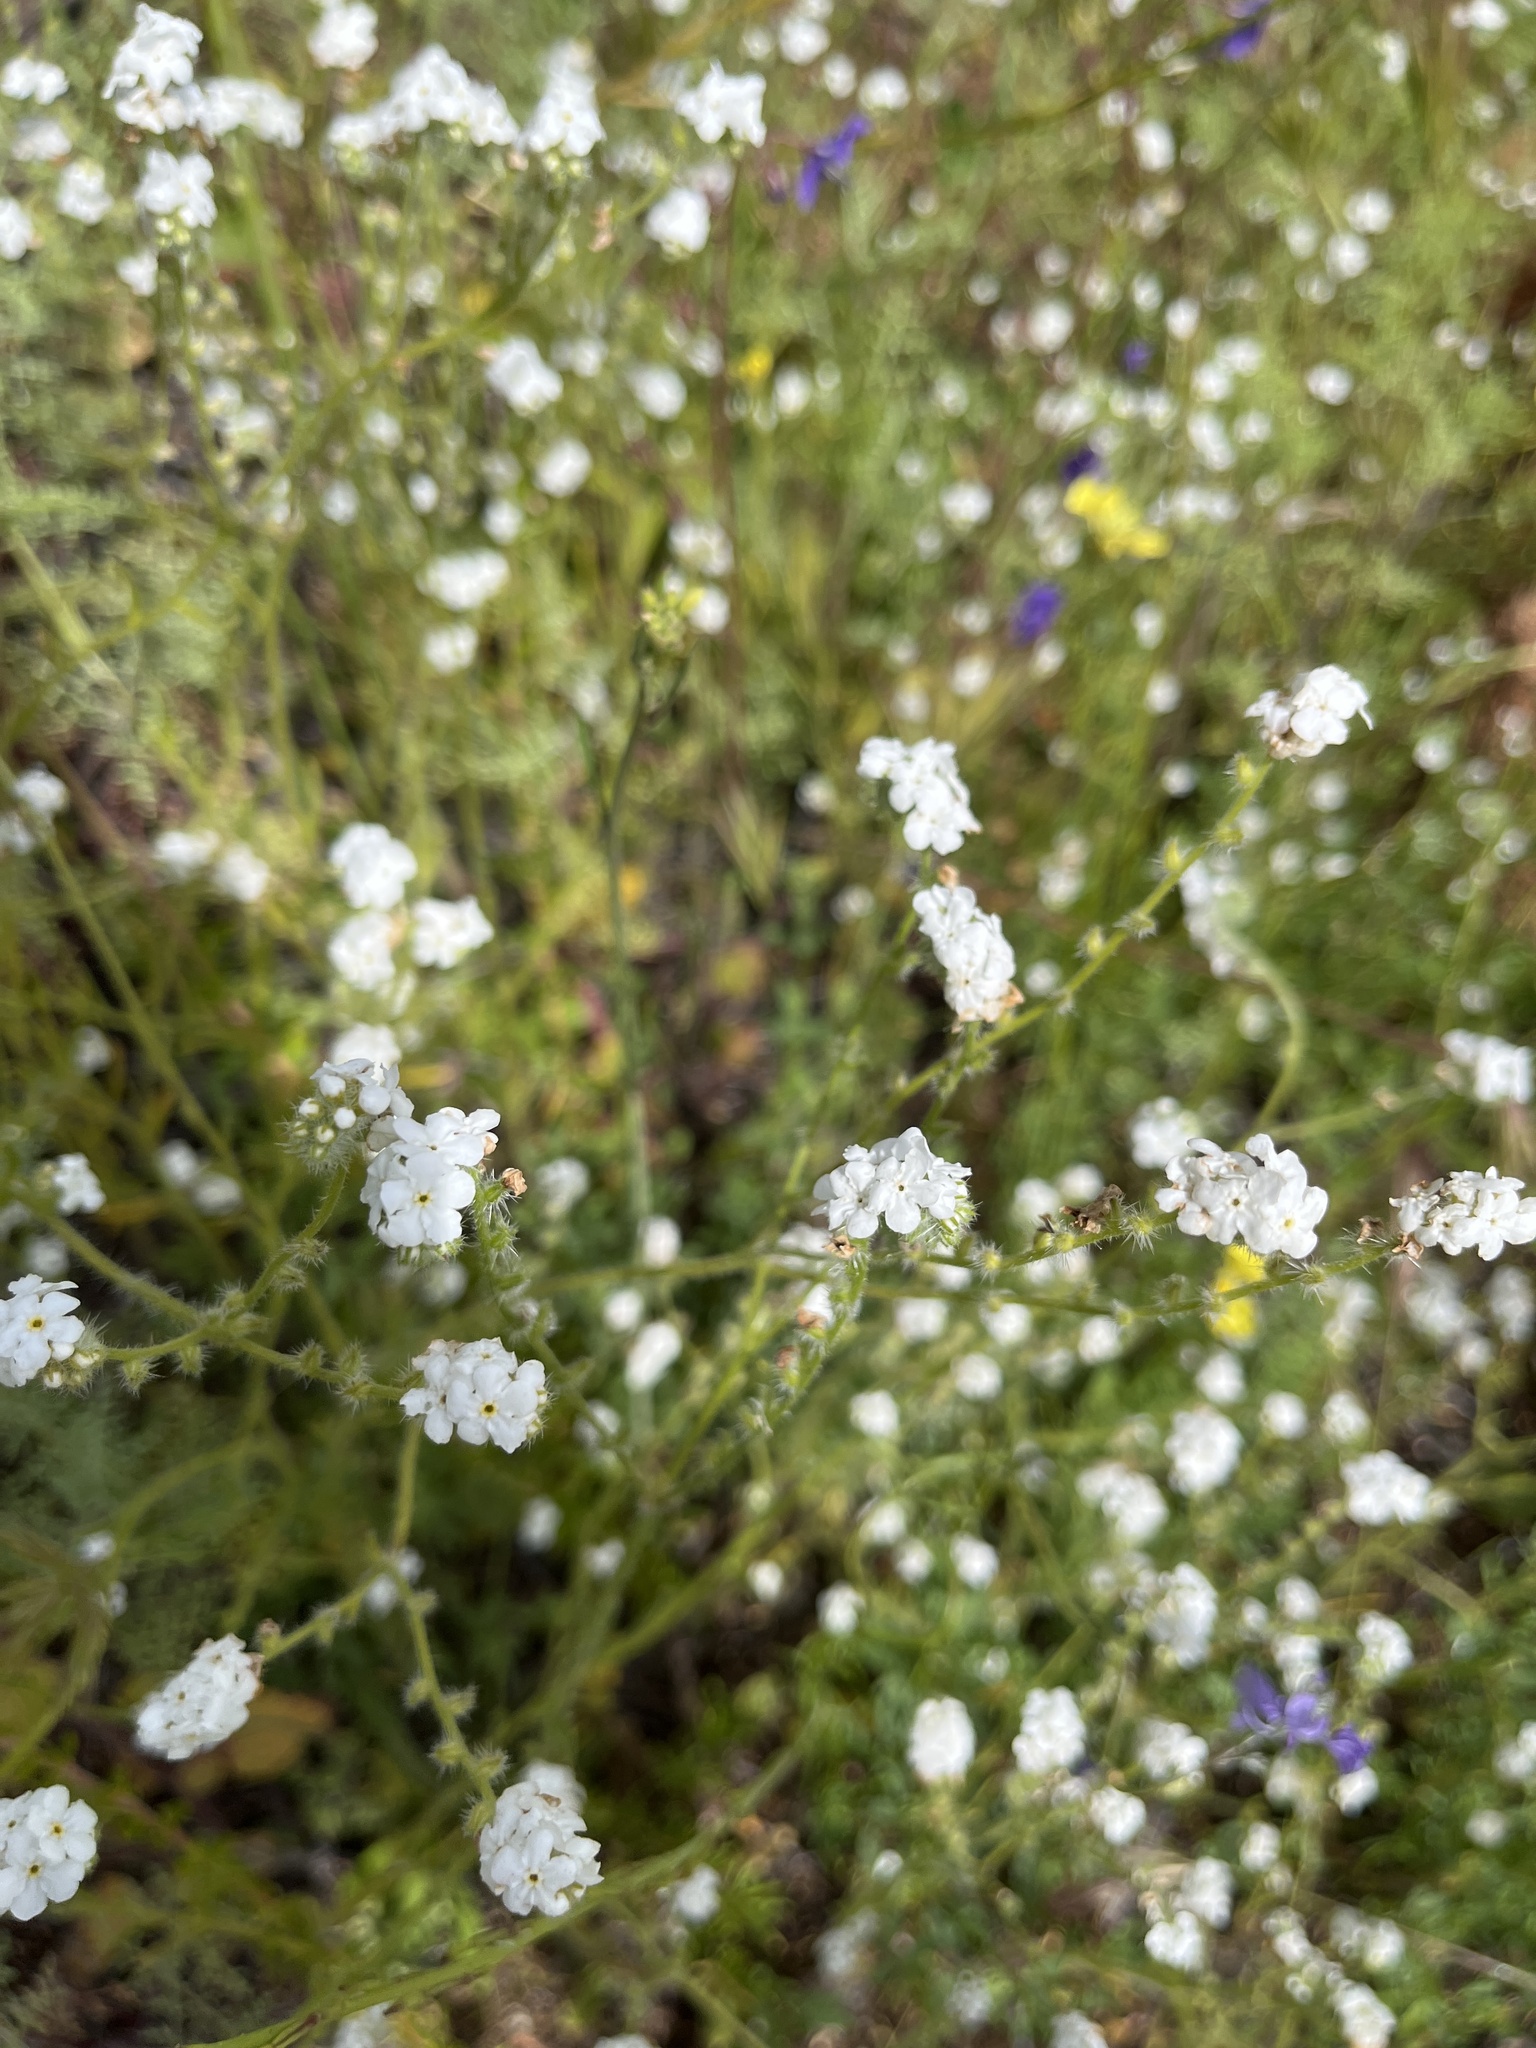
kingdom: Plantae
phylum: Tracheophyta
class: Magnoliopsida
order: Boraginales
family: Boraginaceae
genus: Cryptantha
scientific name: Cryptantha intermedia
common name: Clearwater cryptantha
